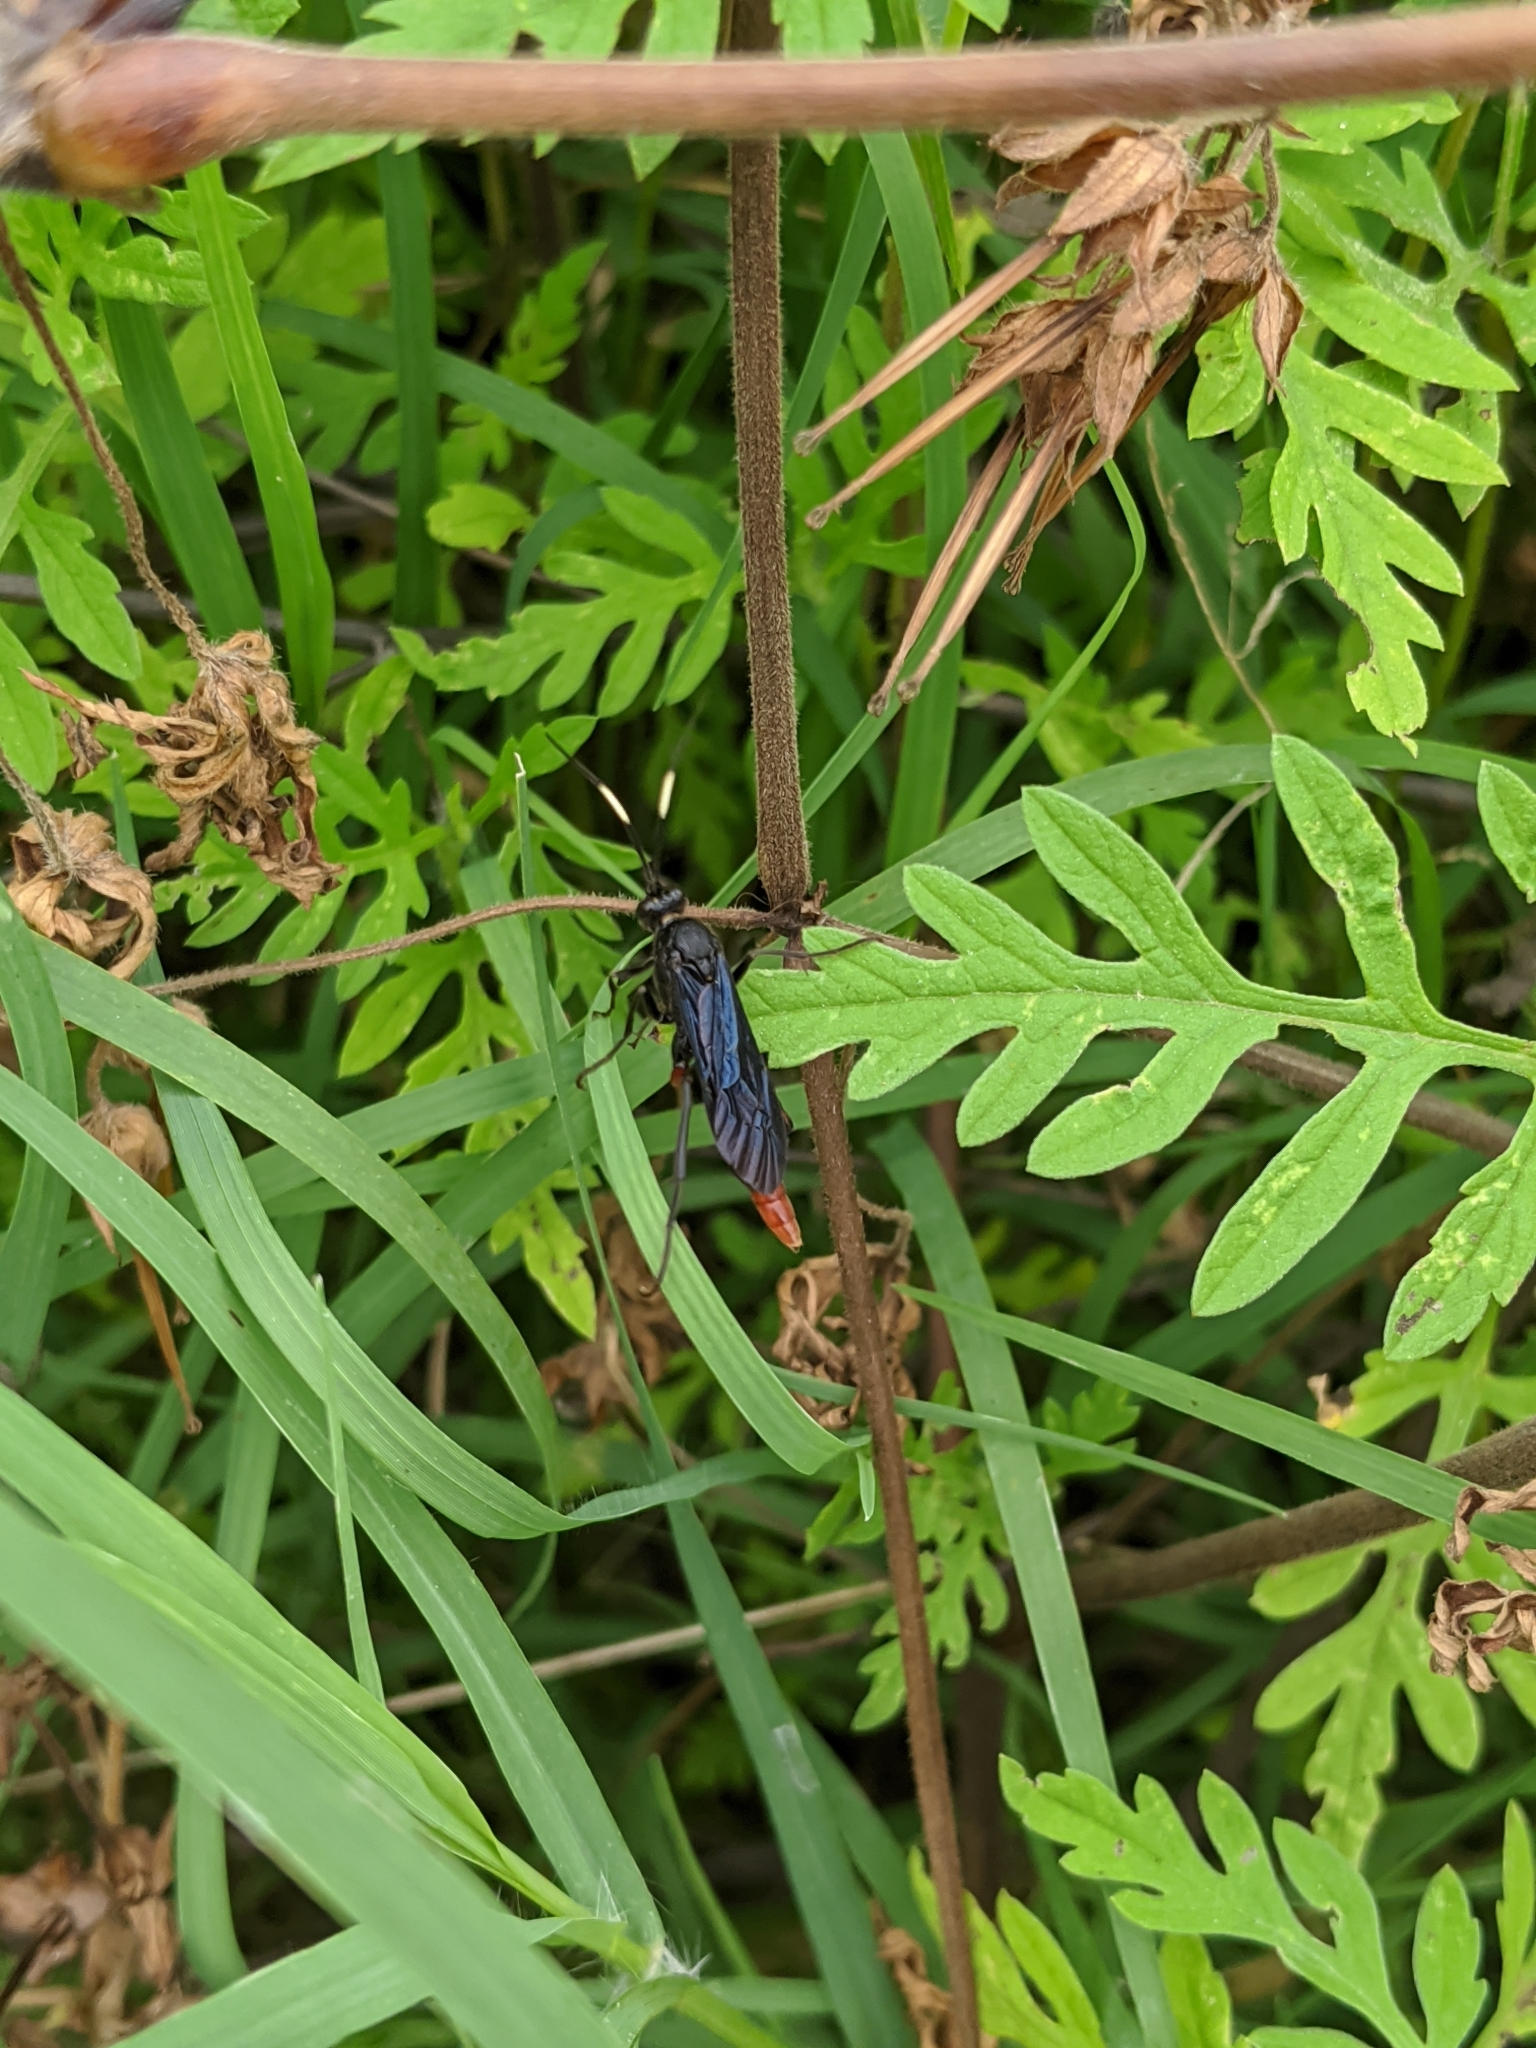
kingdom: Animalia
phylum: Arthropoda
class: Insecta
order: Hymenoptera
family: Ichneumonidae
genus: Limonethe
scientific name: Limonethe maurator
